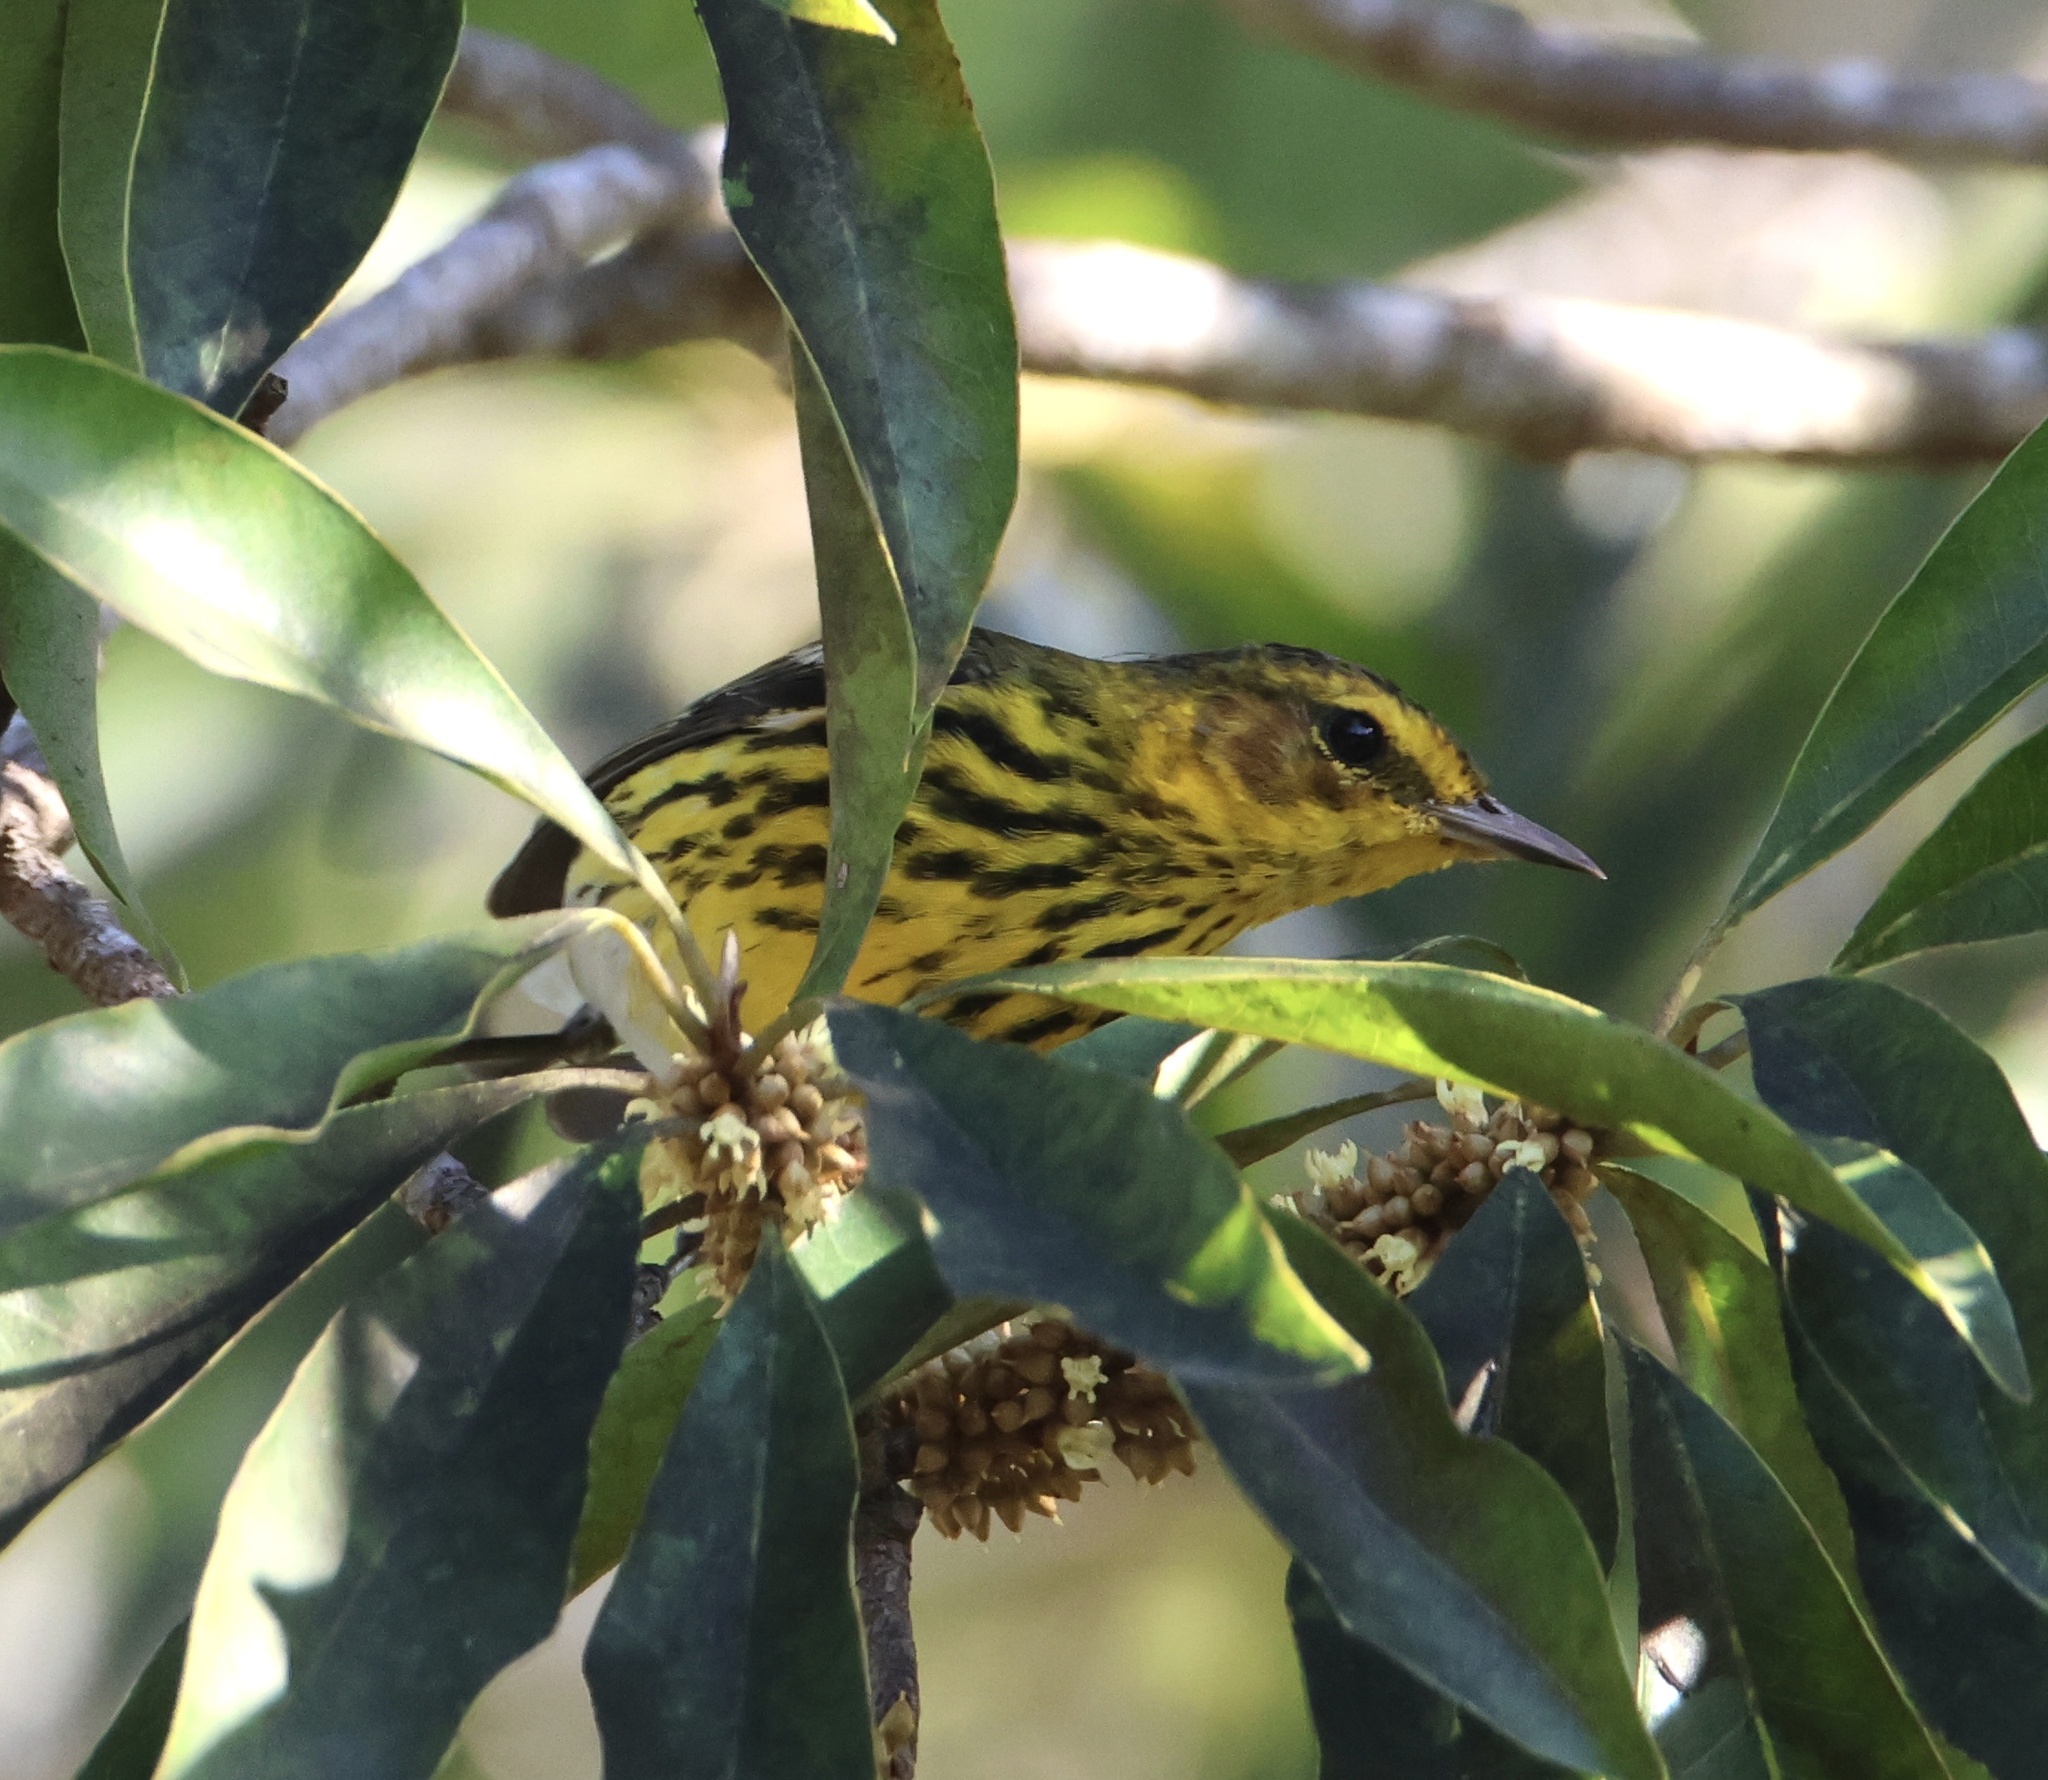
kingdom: Animalia
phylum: Chordata
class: Aves
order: Passeriformes
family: Parulidae
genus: Setophaga
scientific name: Setophaga tigrina
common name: Cape may warbler
